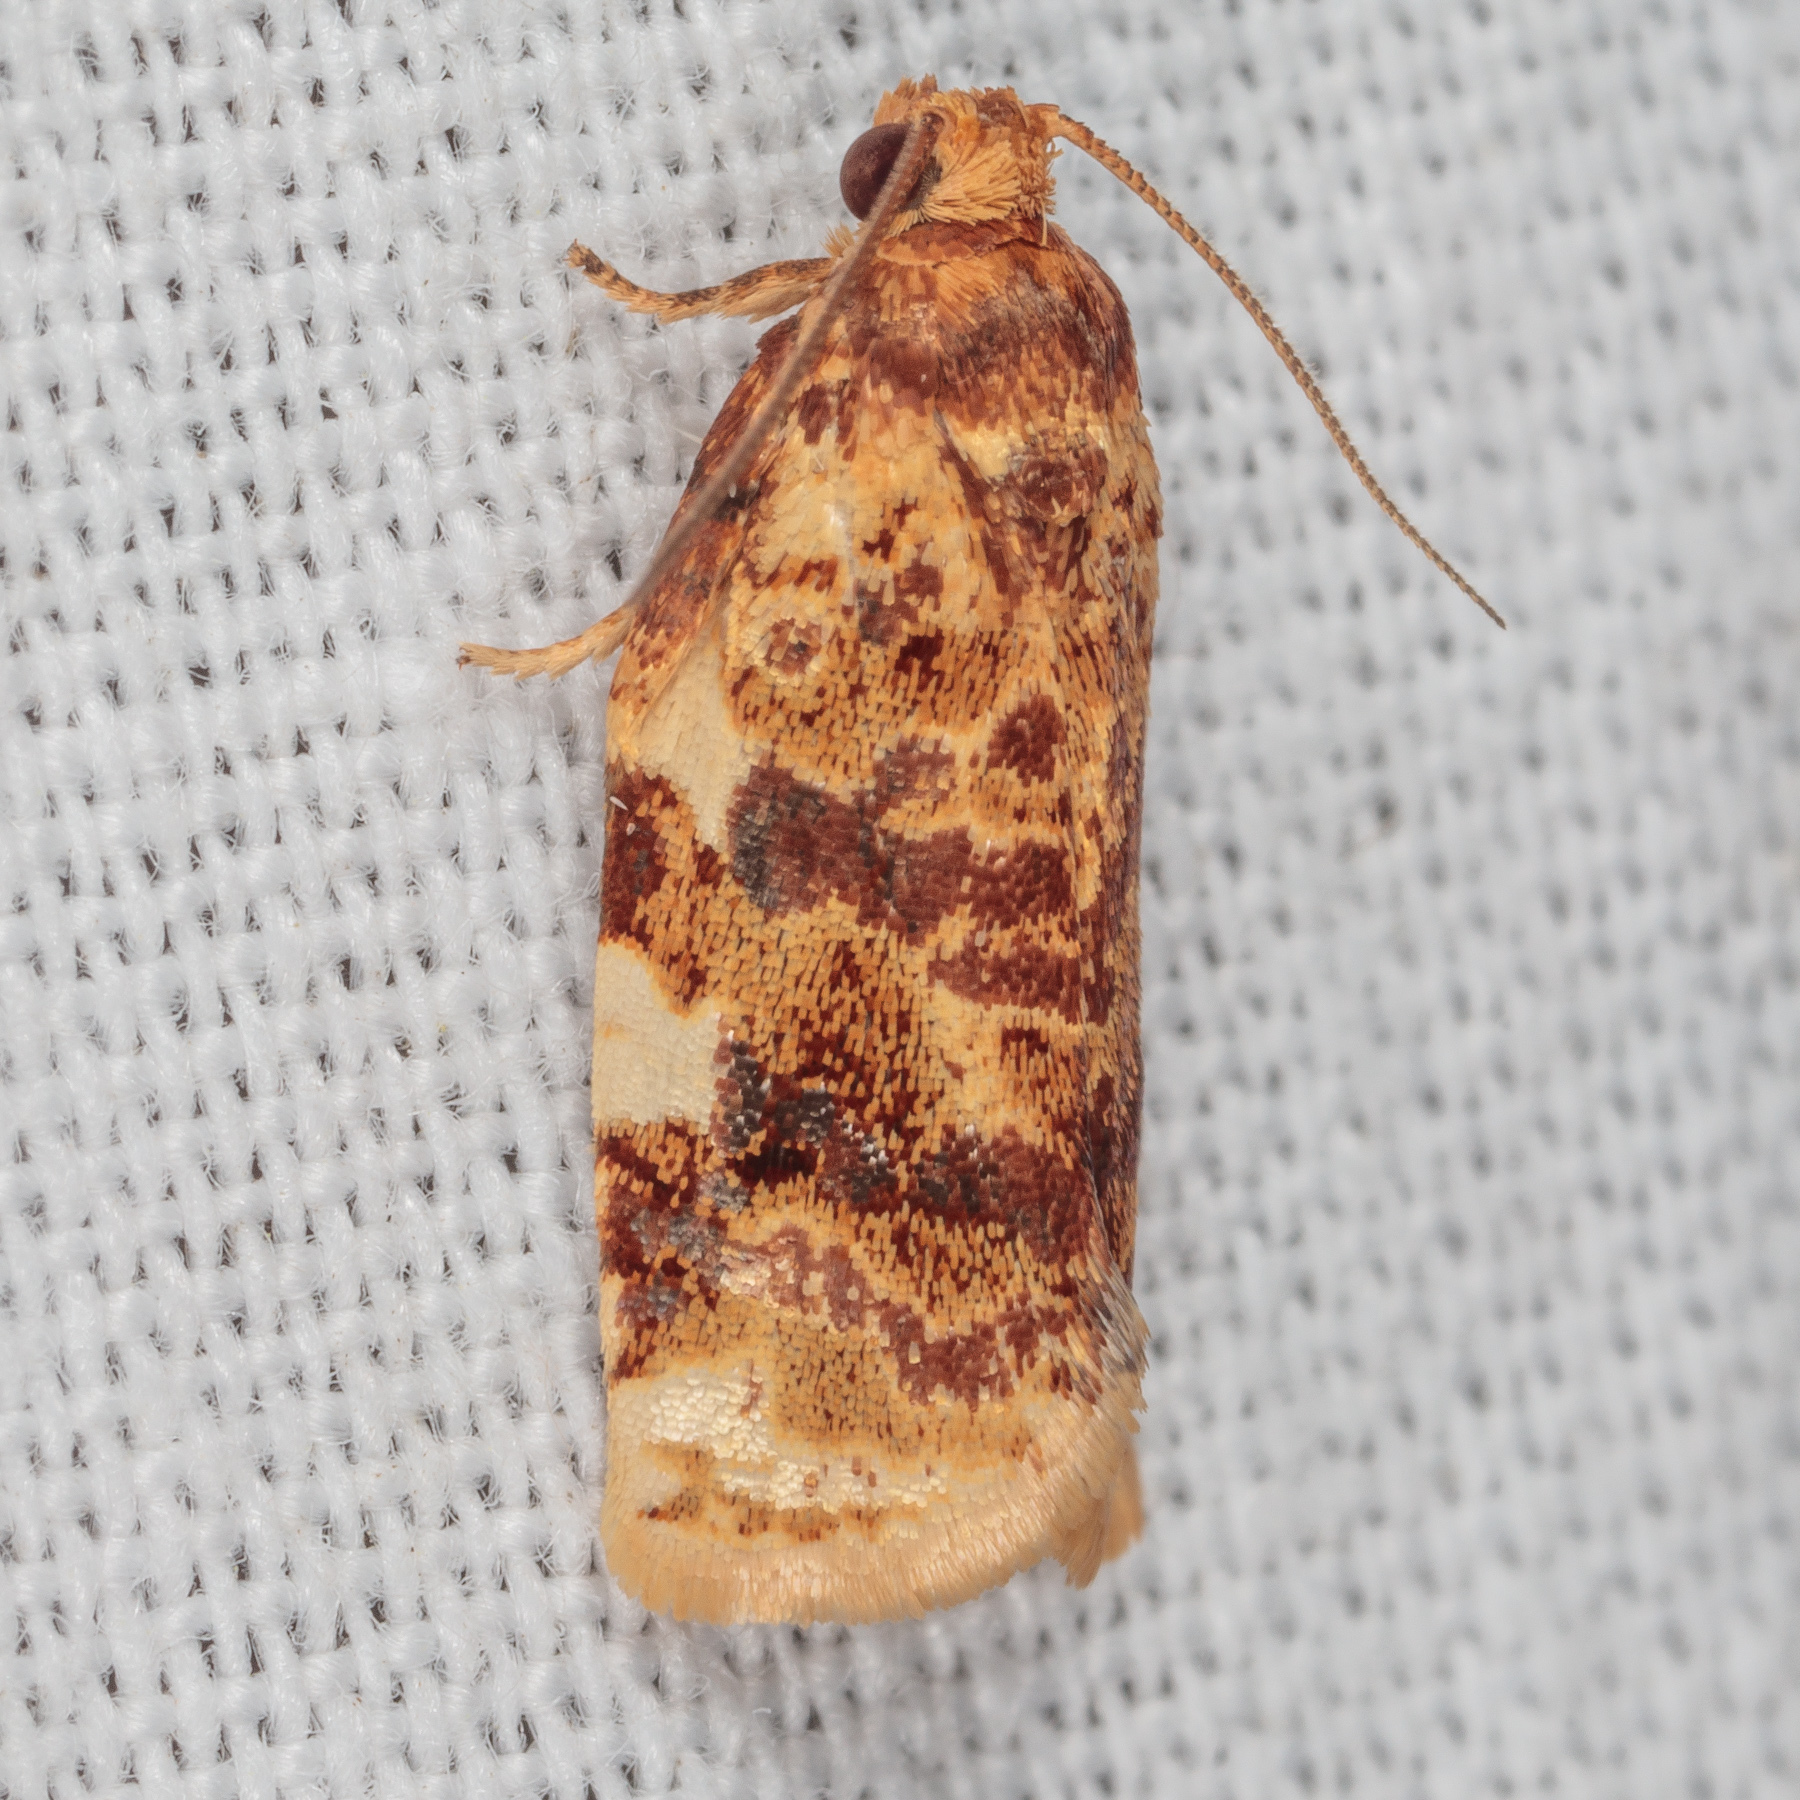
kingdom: Animalia
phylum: Arthropoda
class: Insecta
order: Lepidoptera
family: Tortricidae
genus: Archips
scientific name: Archips argyrospila
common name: Fruit-tree leafroller moth
